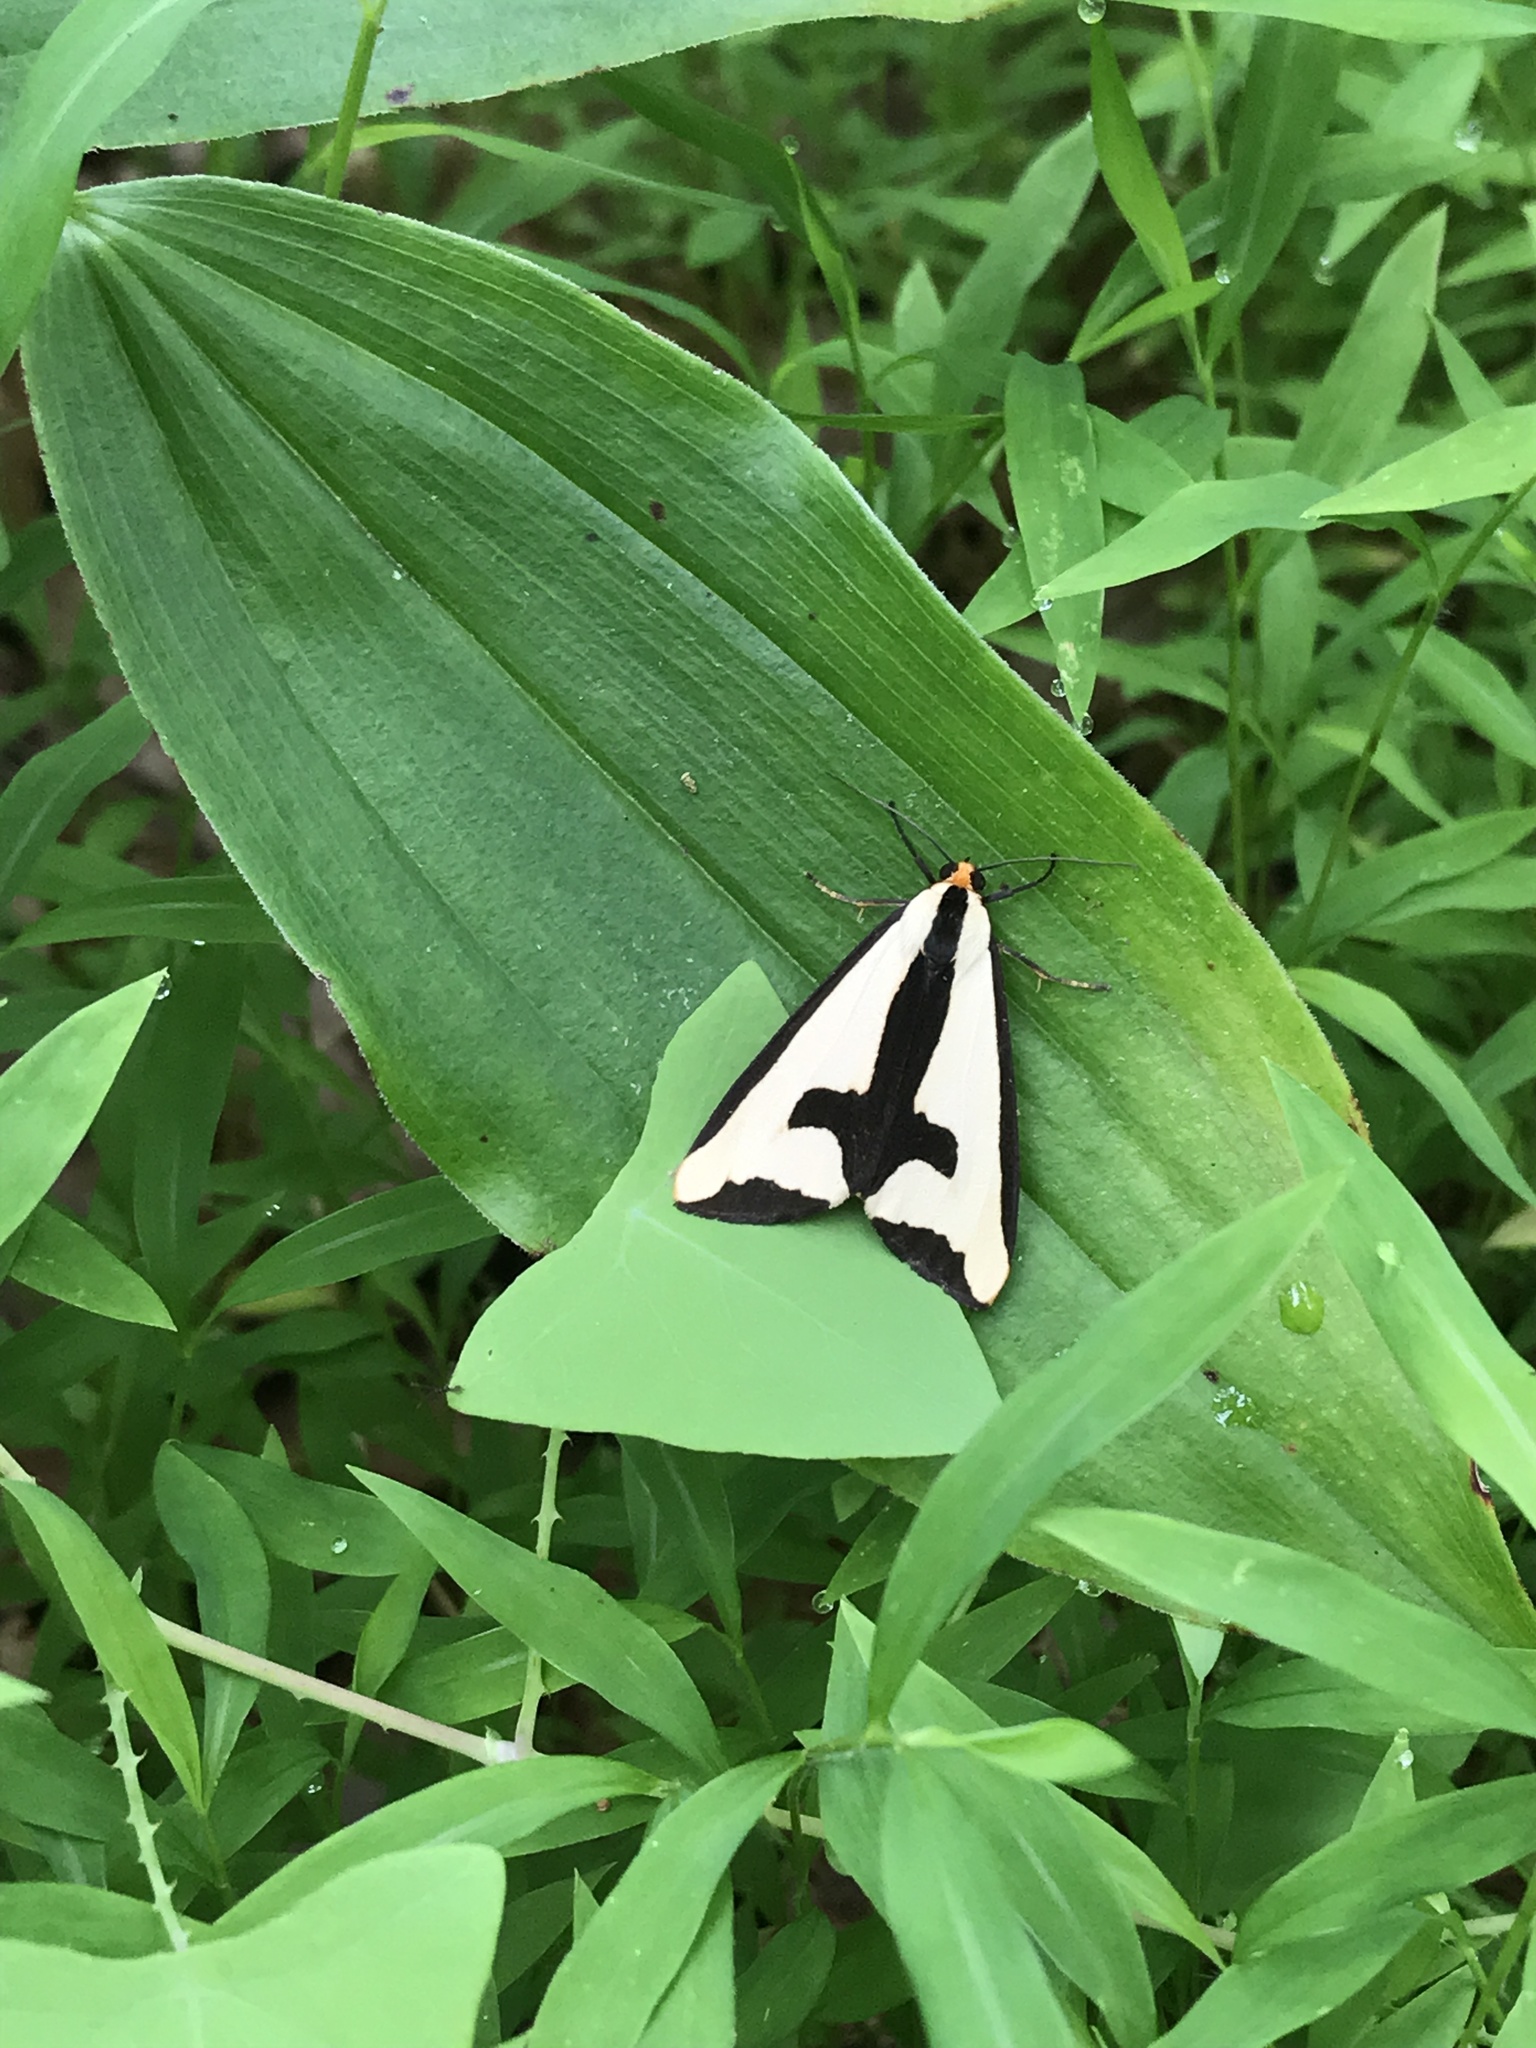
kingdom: Animalia
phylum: Arthropoda
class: Insecta
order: Lepidoptera
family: Erebidae
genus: Haploa
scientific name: Haploa clymene
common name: Clymene moth
